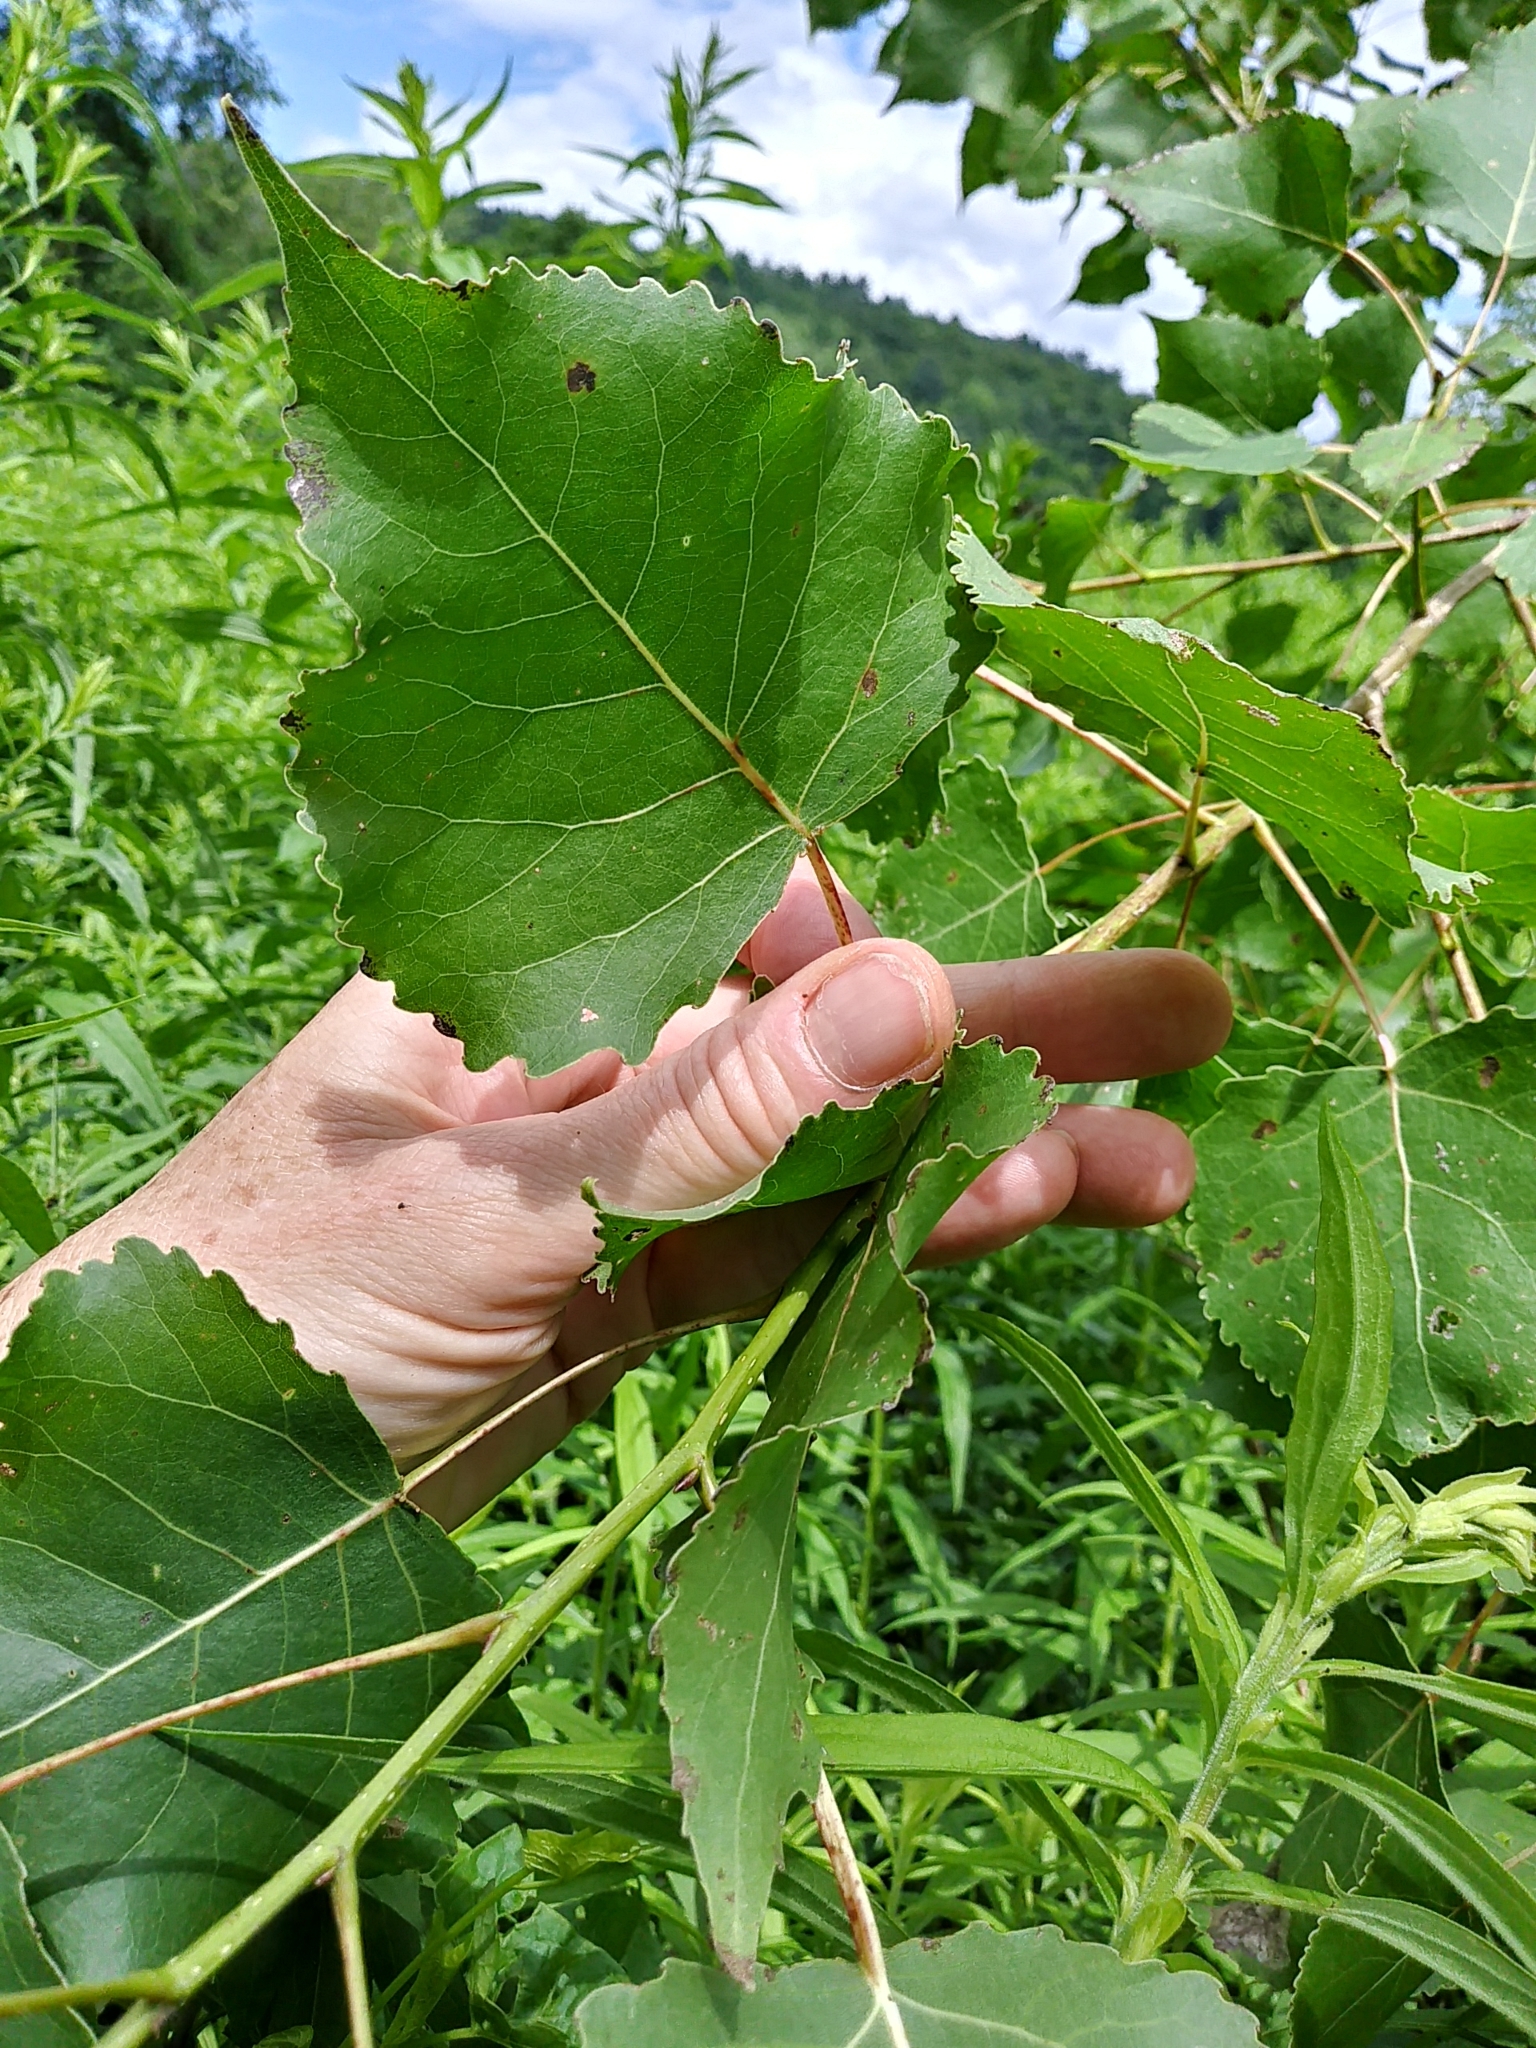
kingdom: Plantae
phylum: Tracheophyta
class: Magnoliopsida
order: Malpighiales
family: Salicaceae
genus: Populus
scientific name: Populus deltoides
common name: Eastern cottonwood
